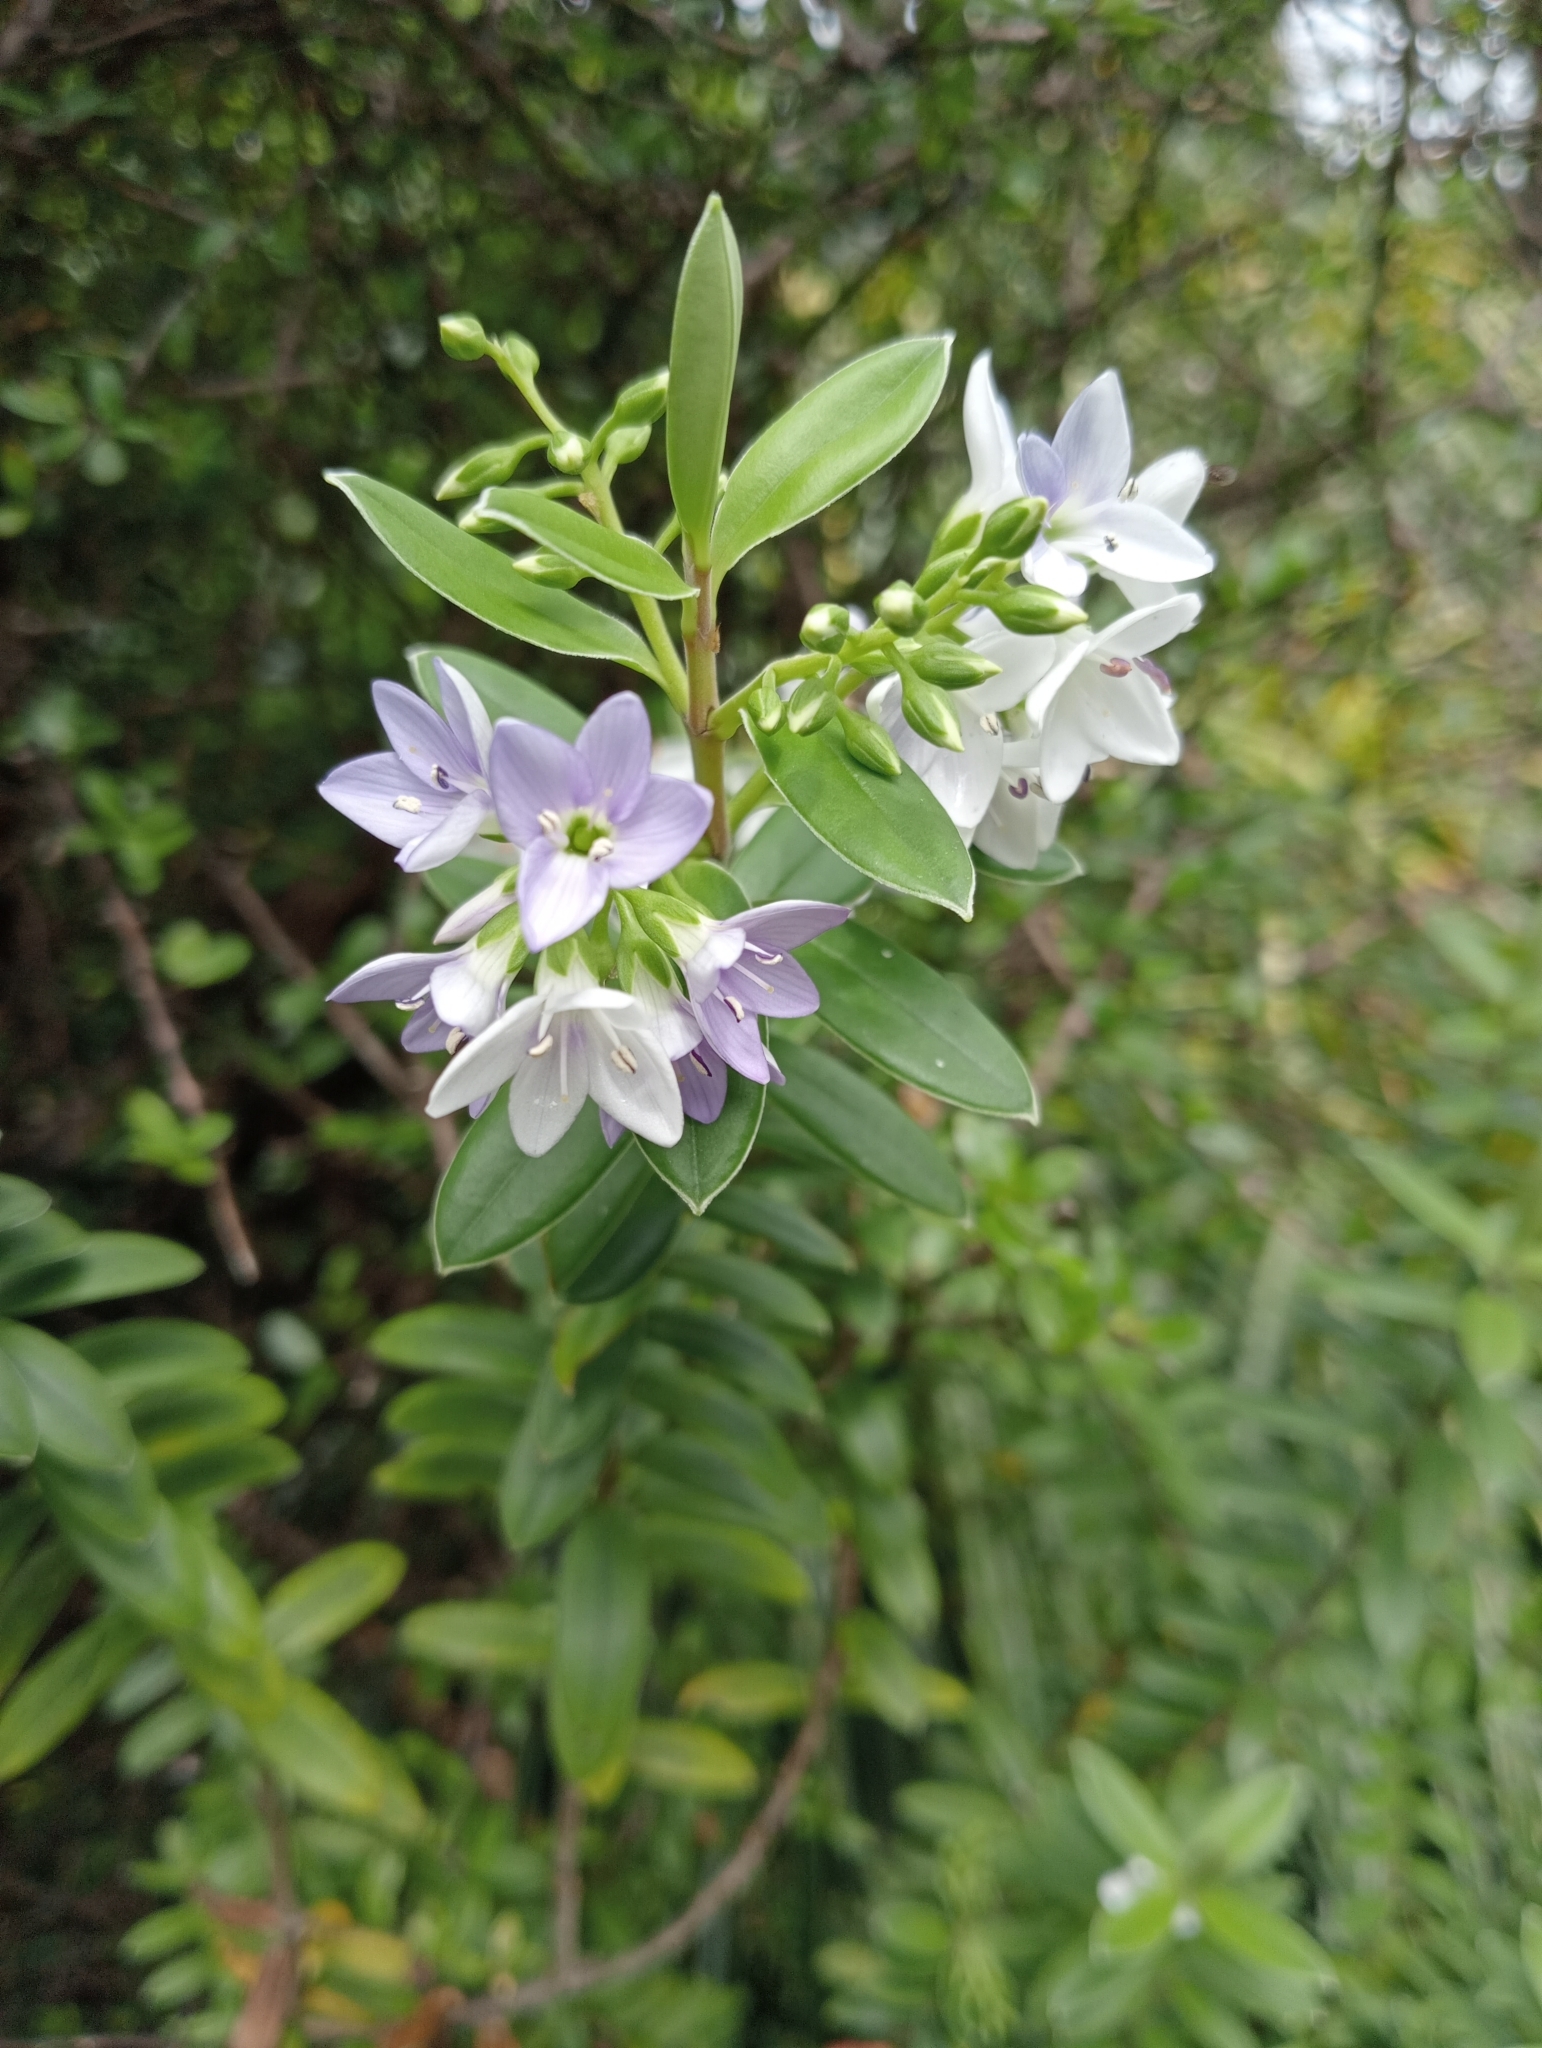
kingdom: Plantae
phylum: Tracheophyta
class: Magnoliopsida
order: Lamiales
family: Plantaginaceae
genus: Veronica
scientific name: Veronica elliptica
